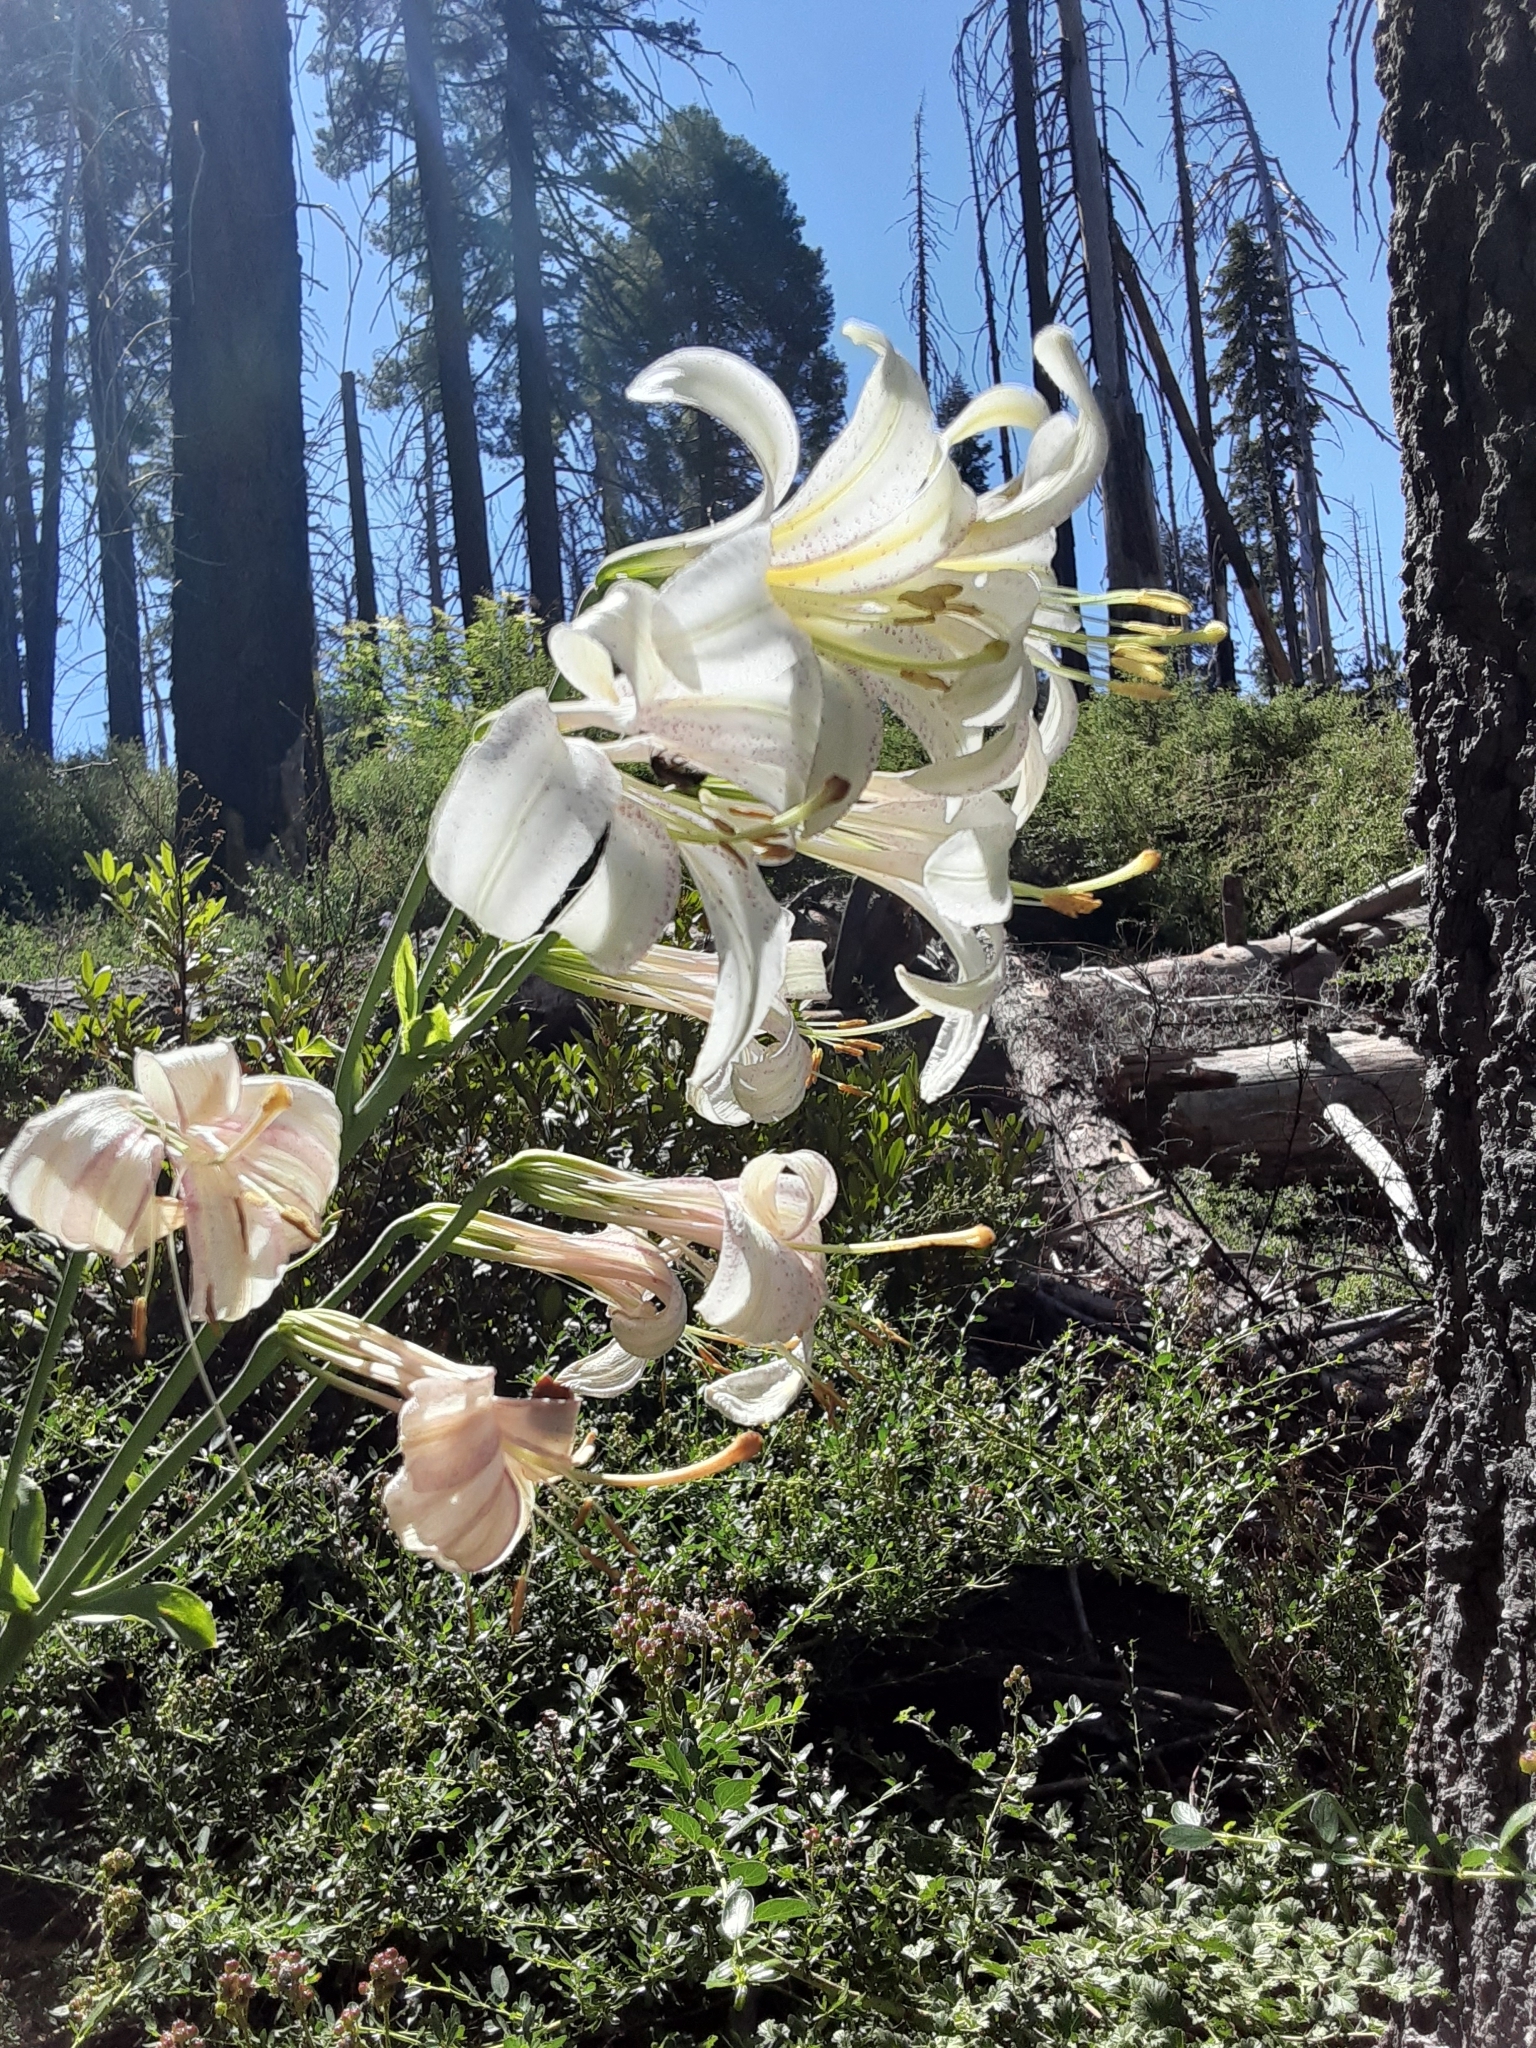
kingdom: Plantae
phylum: Tracheophyta
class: Liliopsida
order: Liliales
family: Liliaceae
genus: Lilium
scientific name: Lilium washingtonianum
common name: Washington lily
